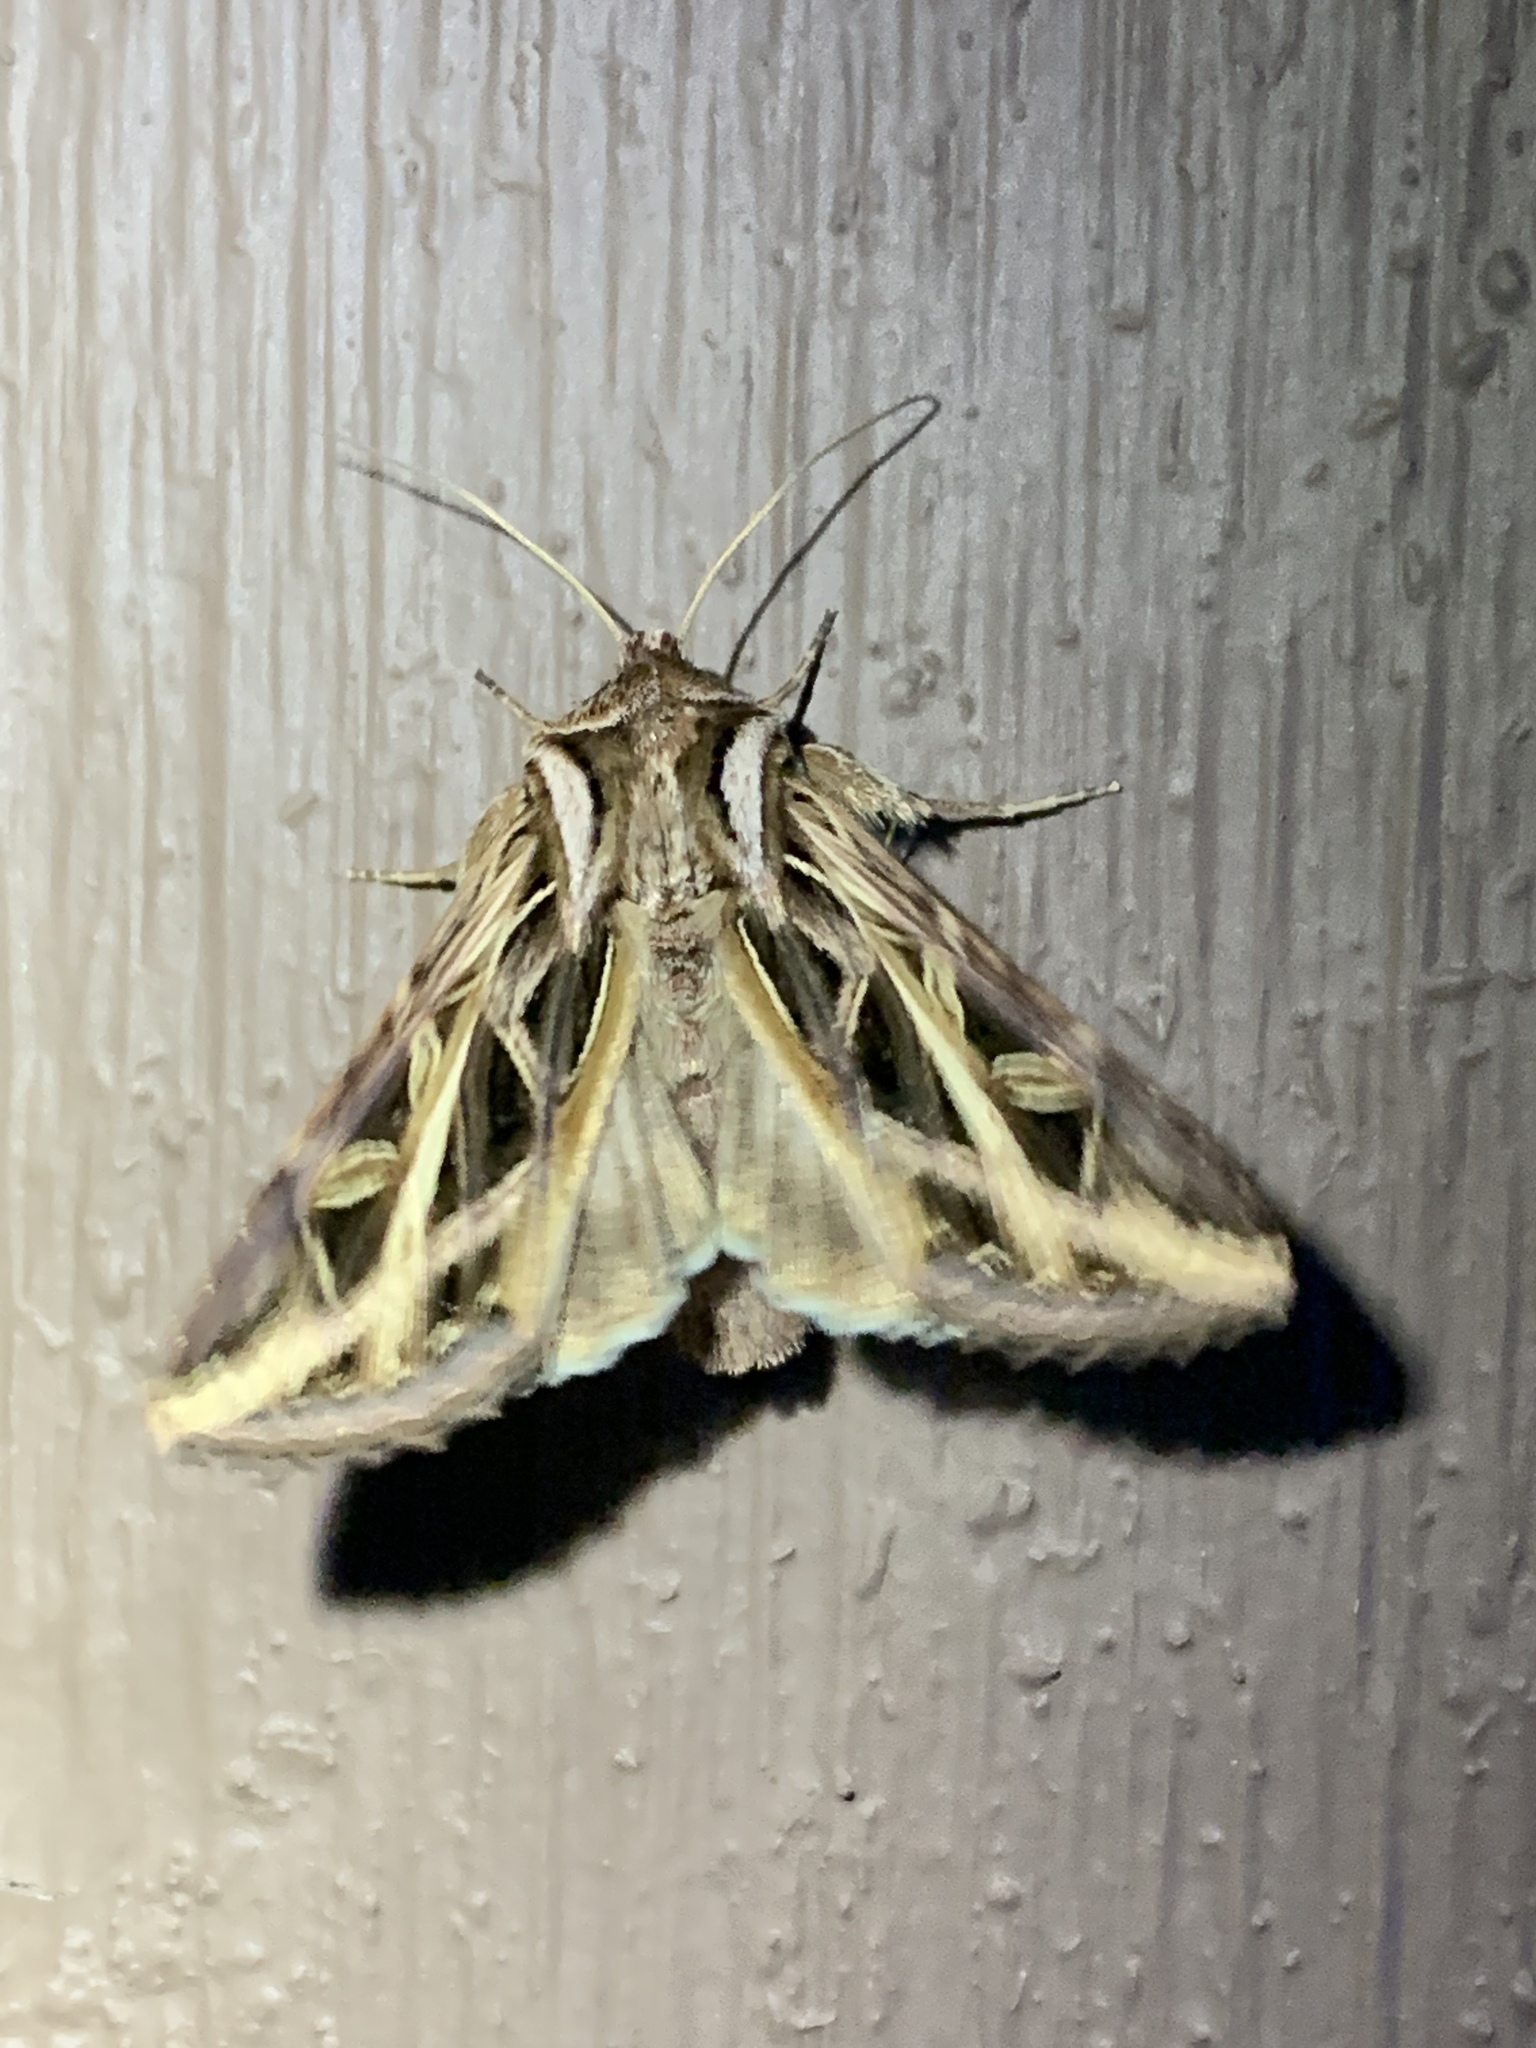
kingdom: Animalia
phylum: Arthropoda
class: Insecta
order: Lepidoptera
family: Noctuidae
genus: Dargida
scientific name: Dargida procinctus
